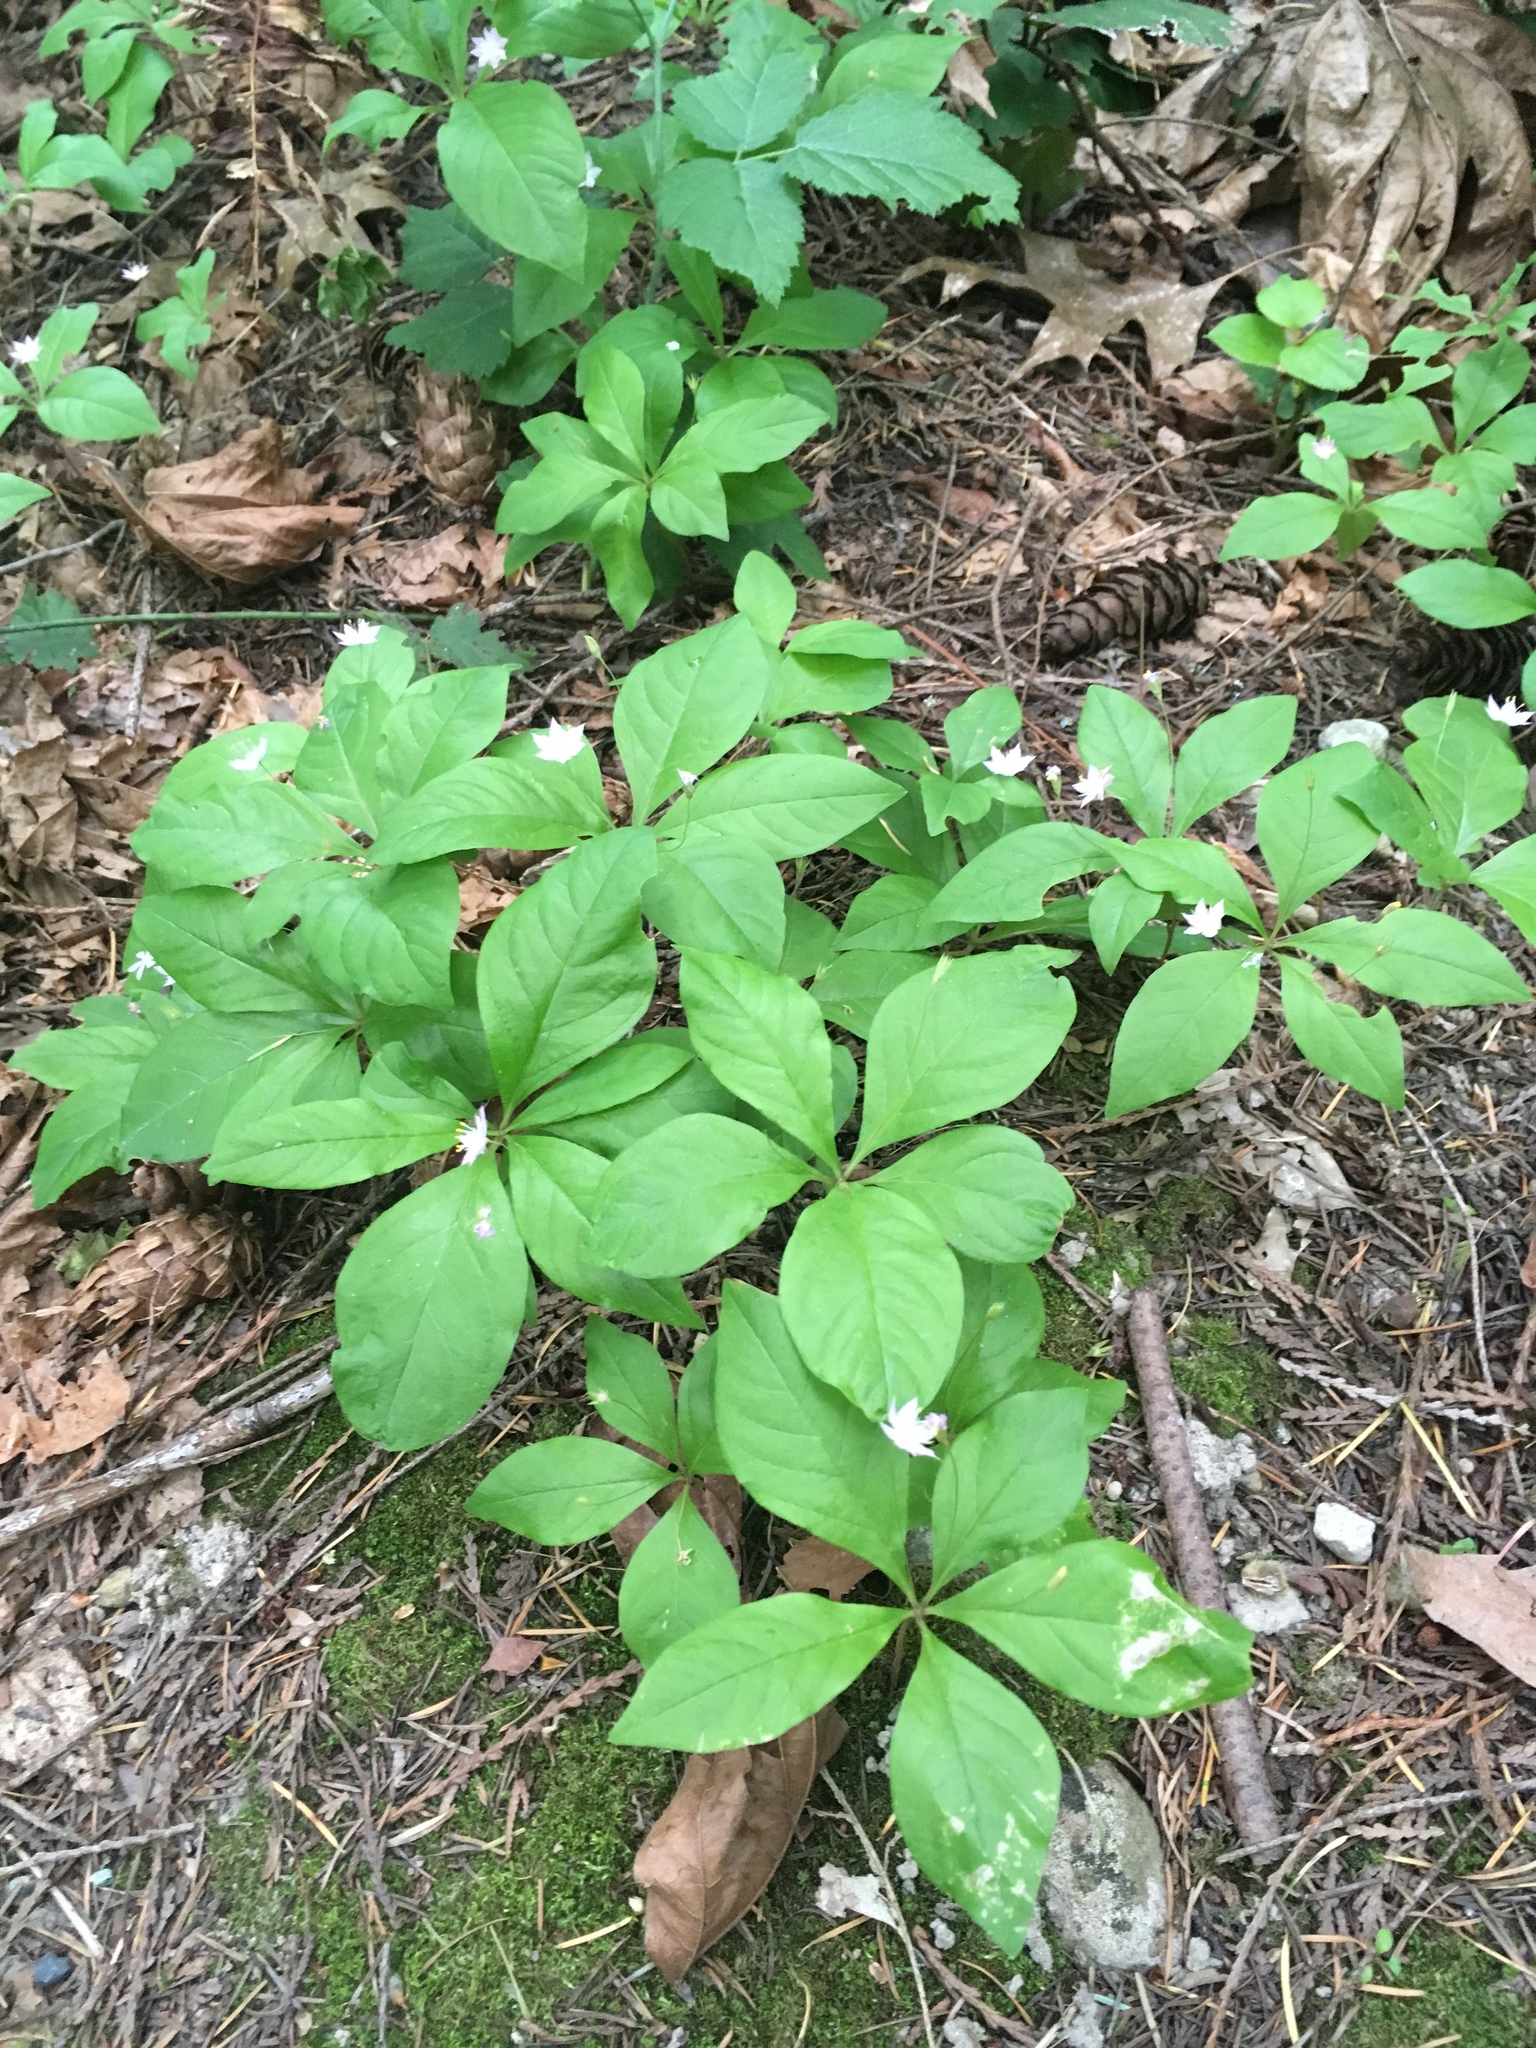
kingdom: Plantae
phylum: Tracheophyta
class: Magnoliopsida
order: Ericales
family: Primulaceae
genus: Lysimachia
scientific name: Lysimachia latifolia
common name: Pacific starflower
